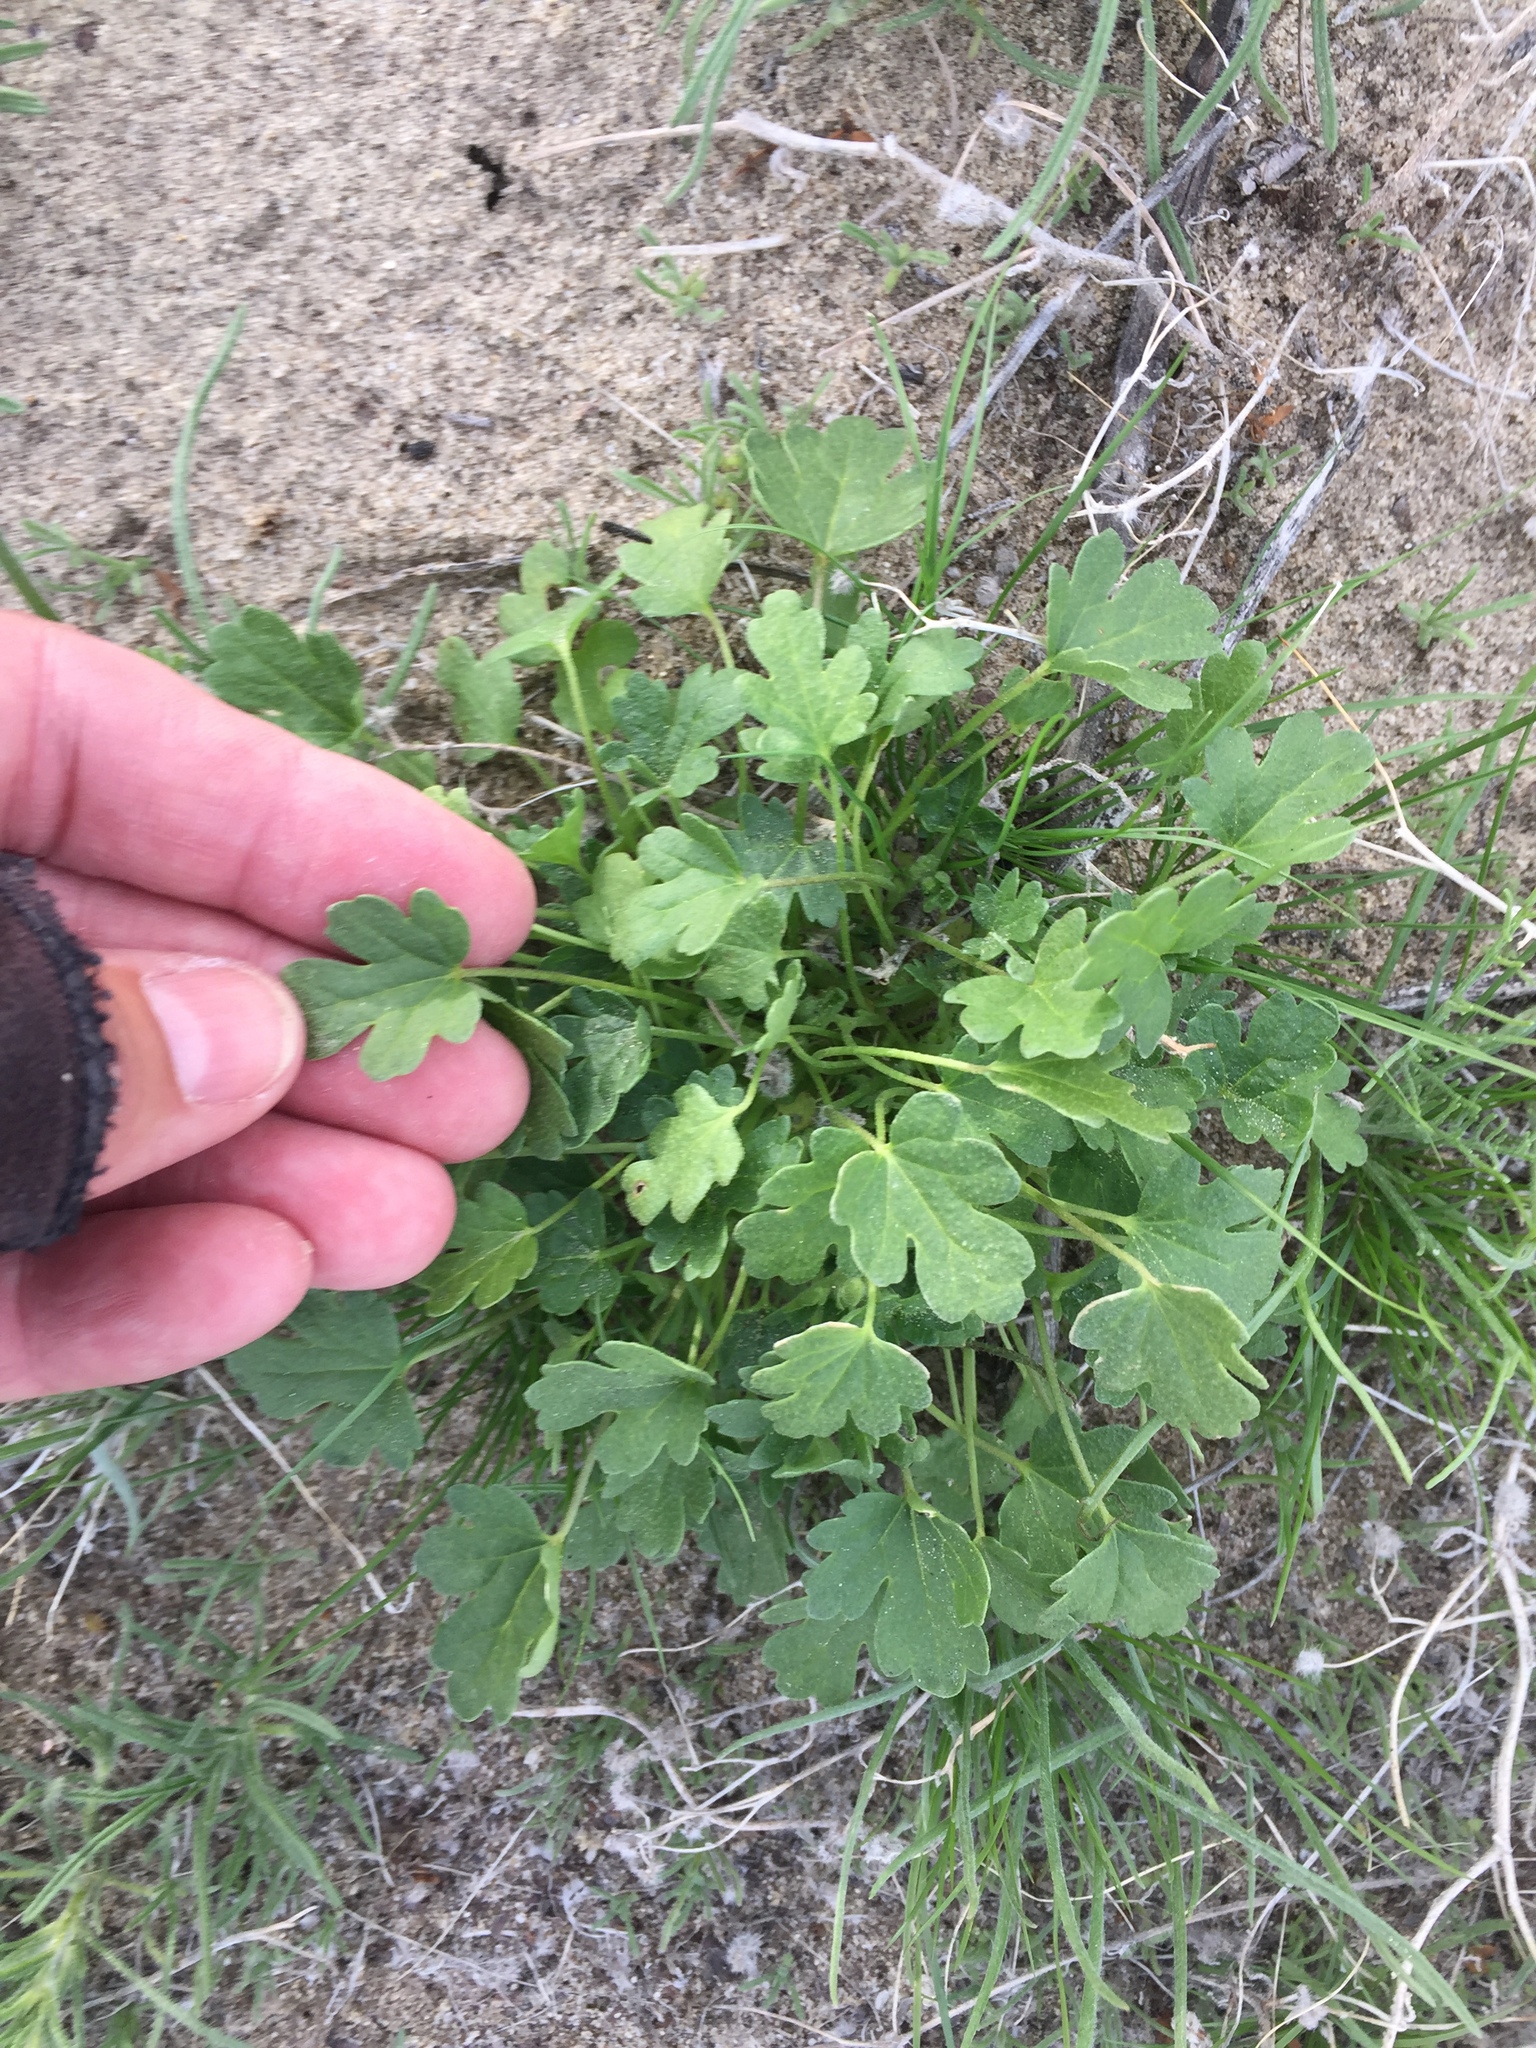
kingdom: Plantae
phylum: Tracheophyta
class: Magnoliopsida
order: Malvales
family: Malvaceae
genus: Eremalche
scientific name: Eremalche exilis
